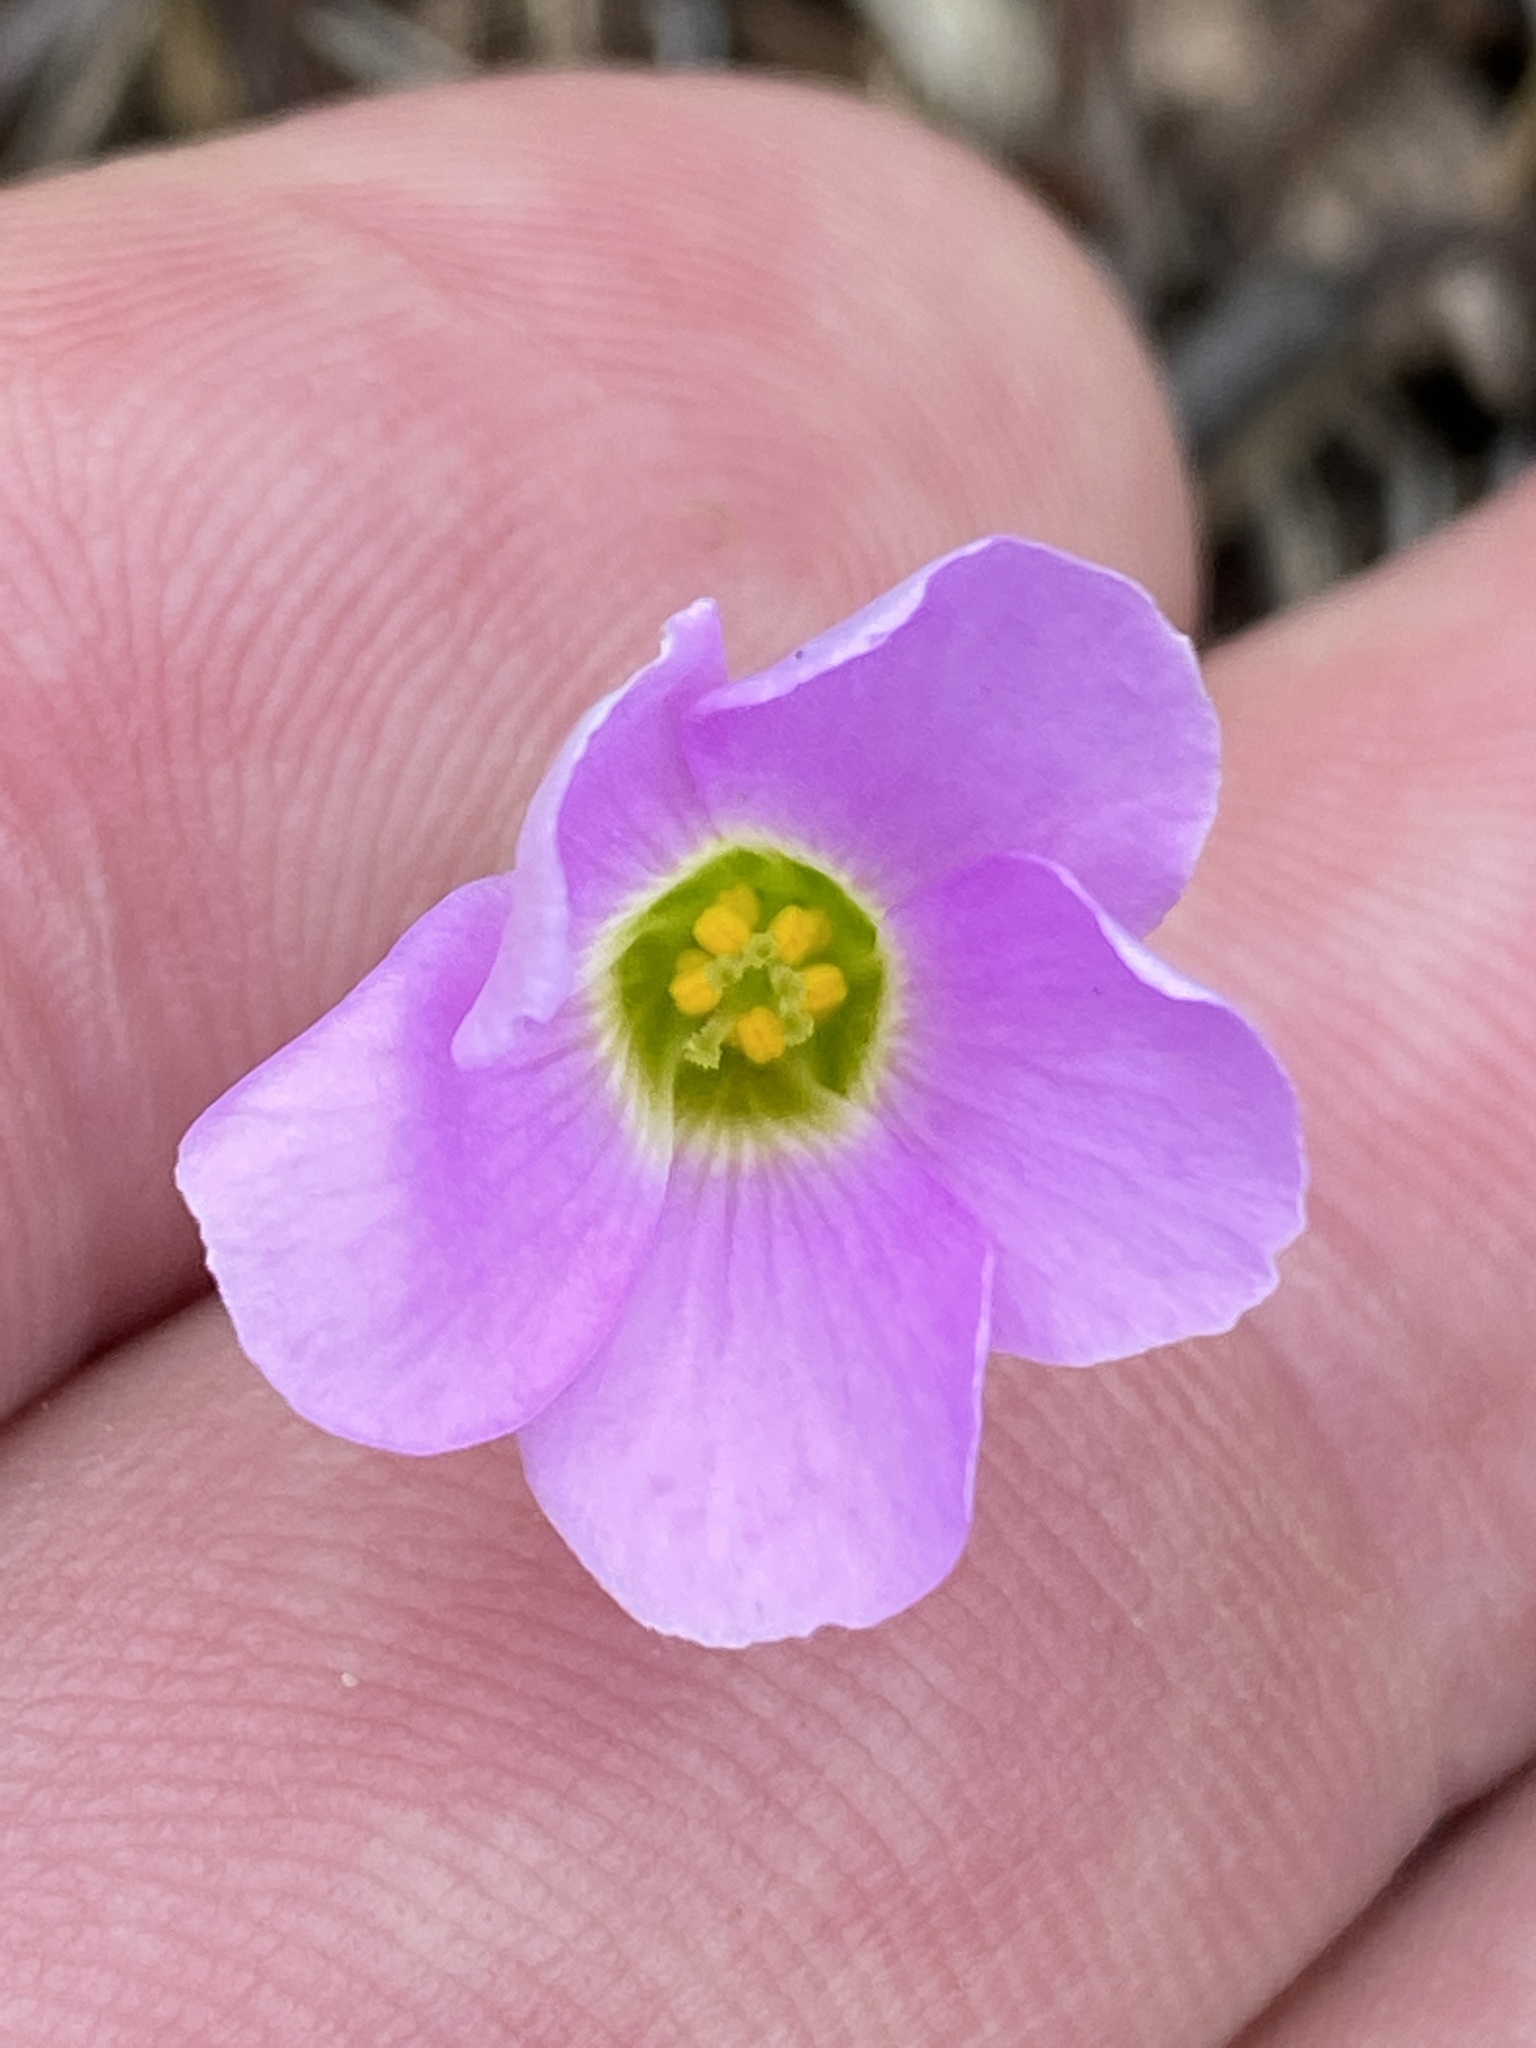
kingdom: Plantae
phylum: Tracheophyta
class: Magnoliopsida
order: Oxalidales
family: Oxalidaceae
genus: Oxalis
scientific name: Oxalis smithiana
